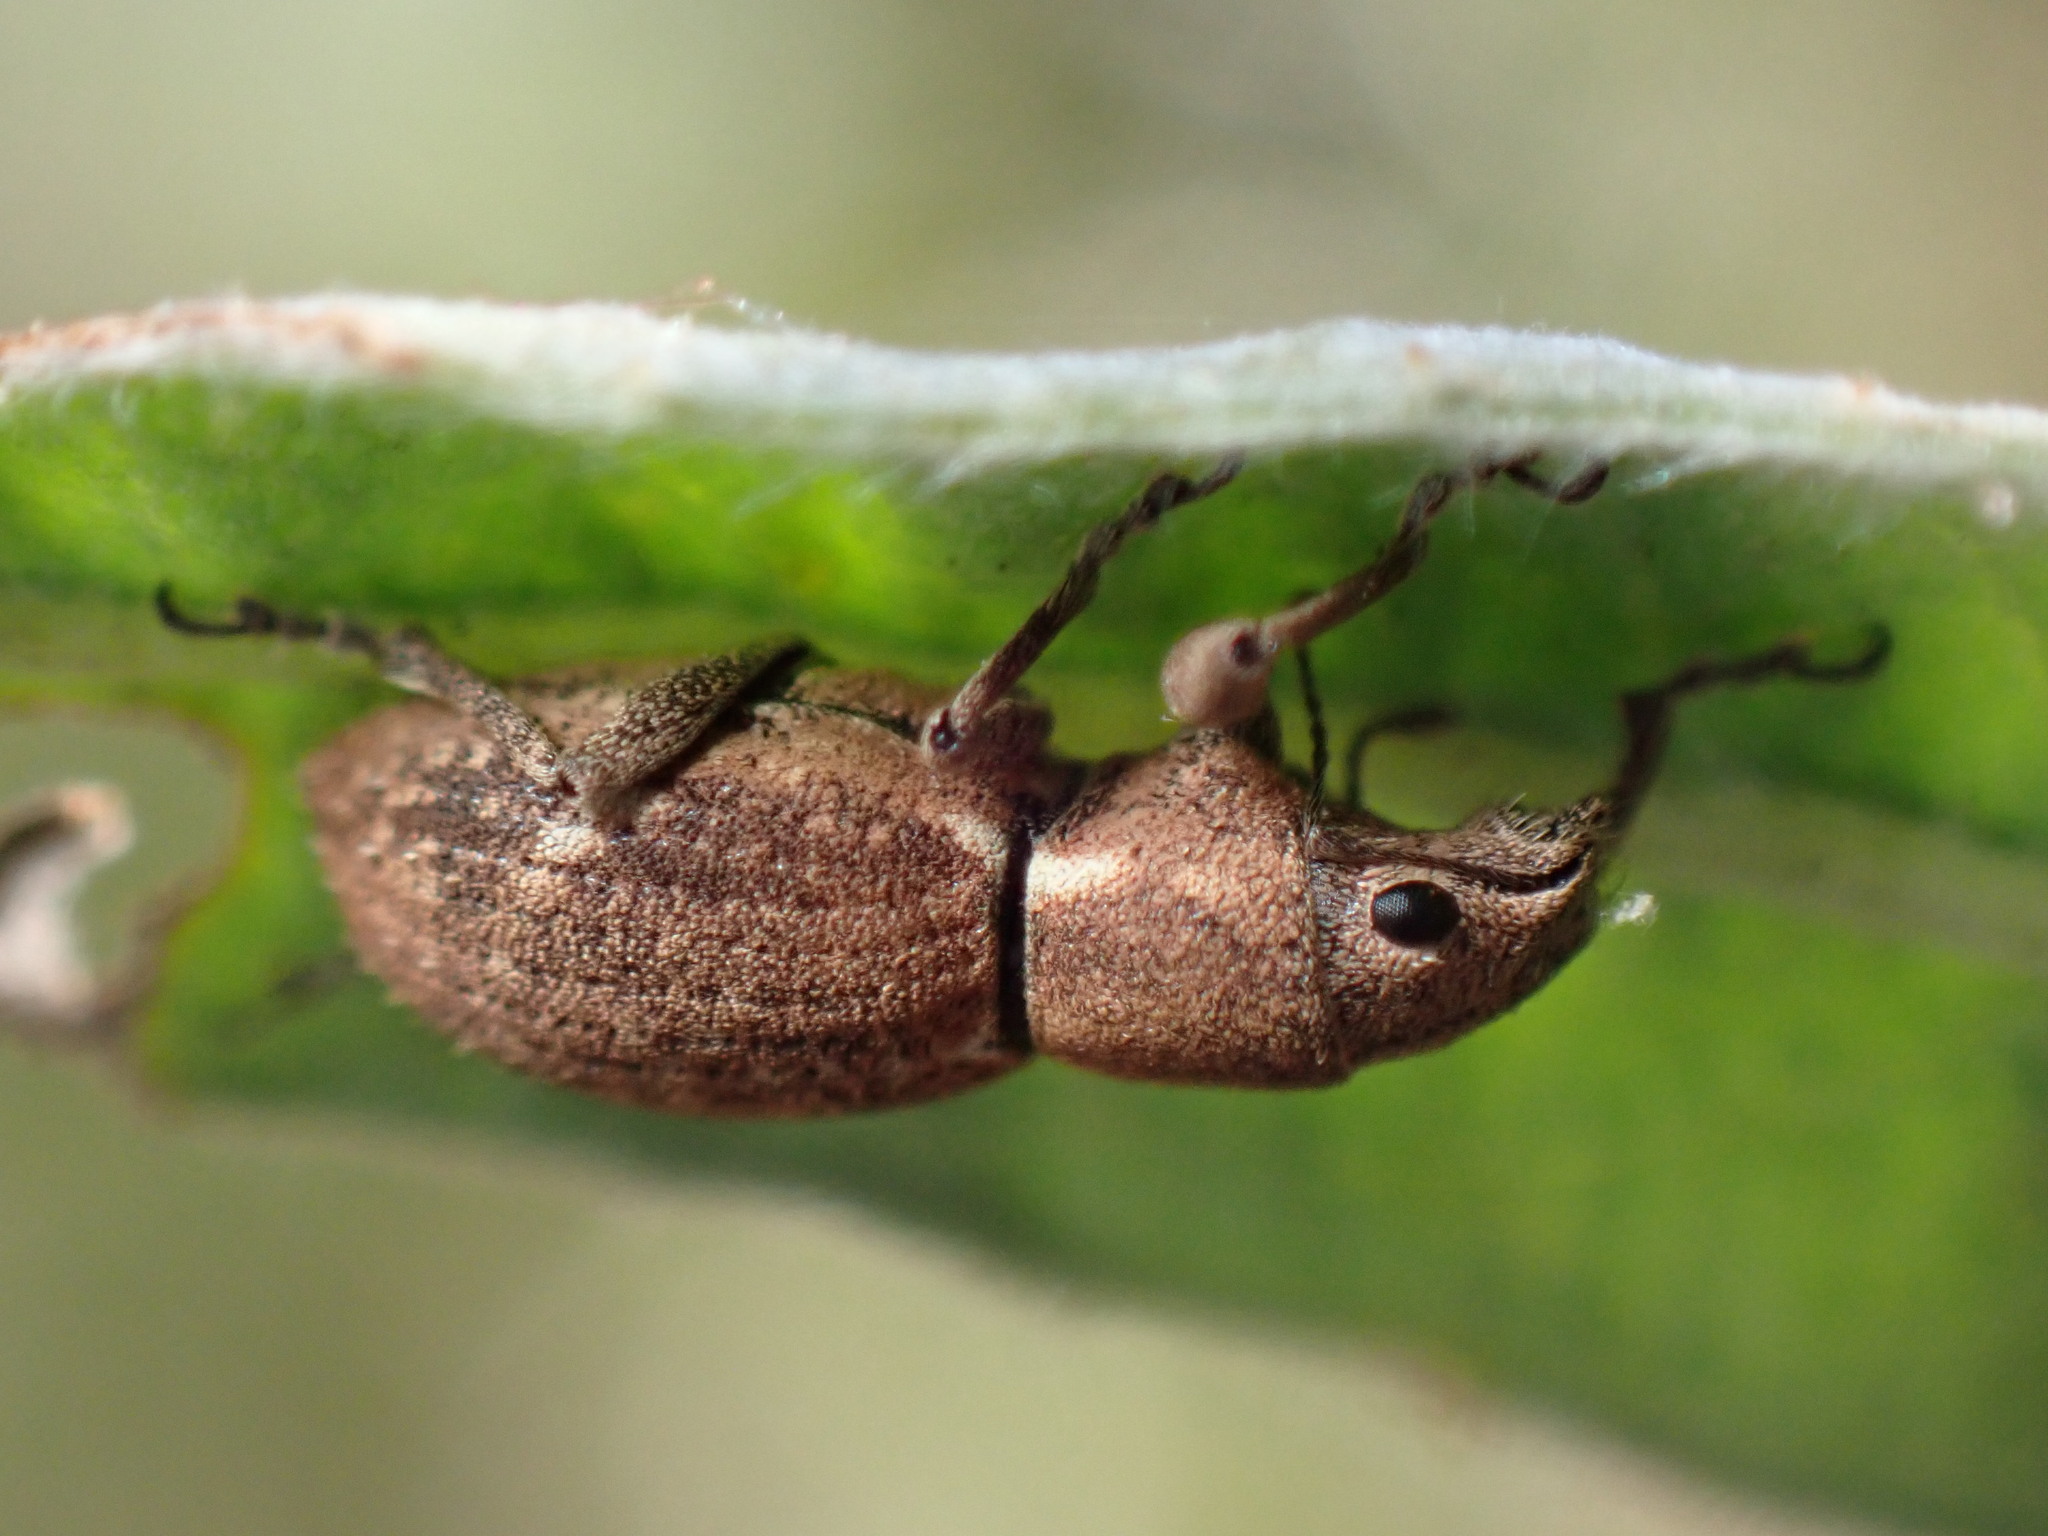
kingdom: Animalia
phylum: Arthropoda
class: Insecta
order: Coleoptera
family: Curculionidae
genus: Naupactus
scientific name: Naupactus cervinus
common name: Fuller rose beetle
